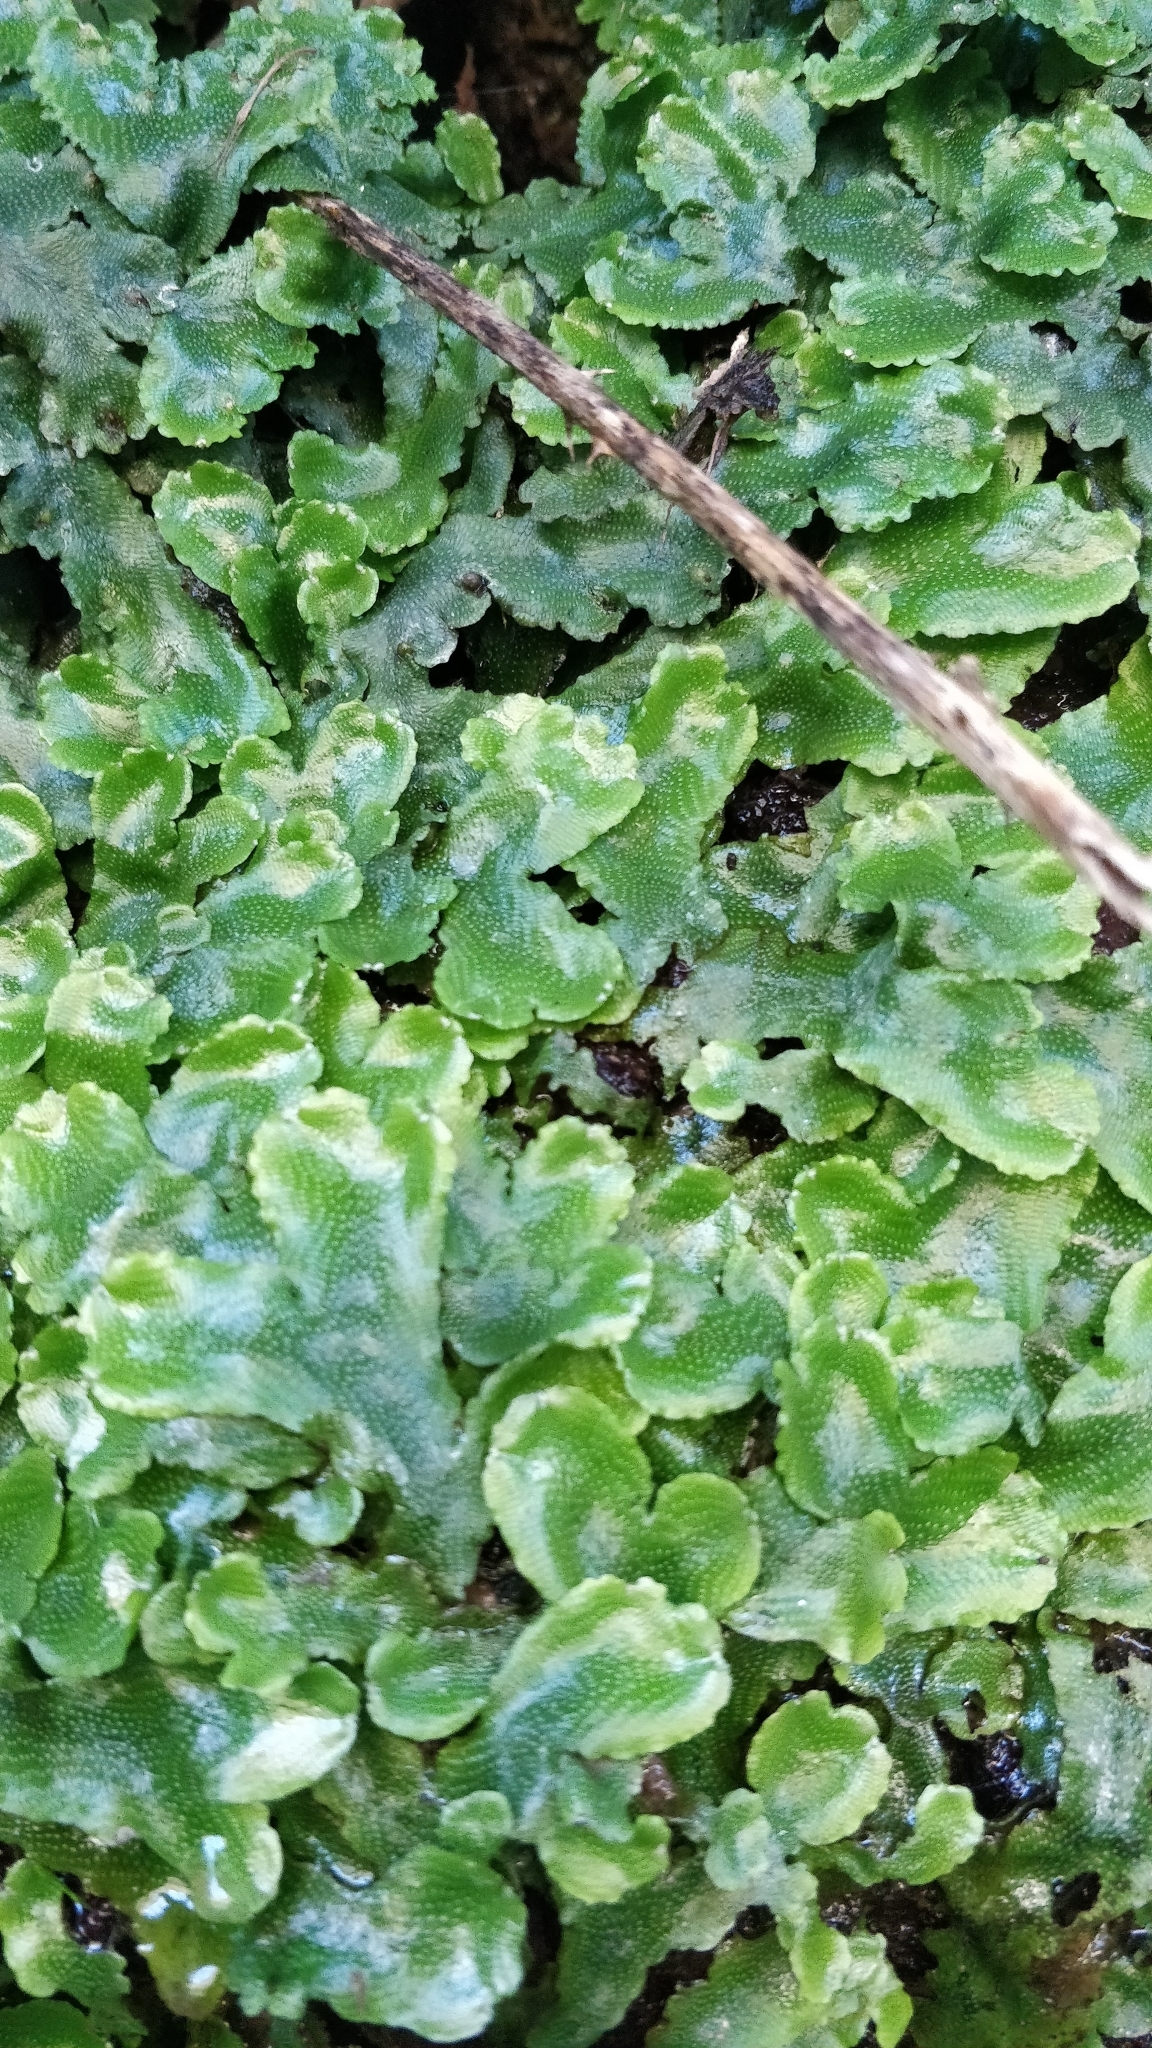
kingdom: Plantae
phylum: Marchantiophyta
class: Marchantiopsida
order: Marchantiales
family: Conocephalaceae
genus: Conocephalum
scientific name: Conocephalum conicum
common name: Great scented liverwort
